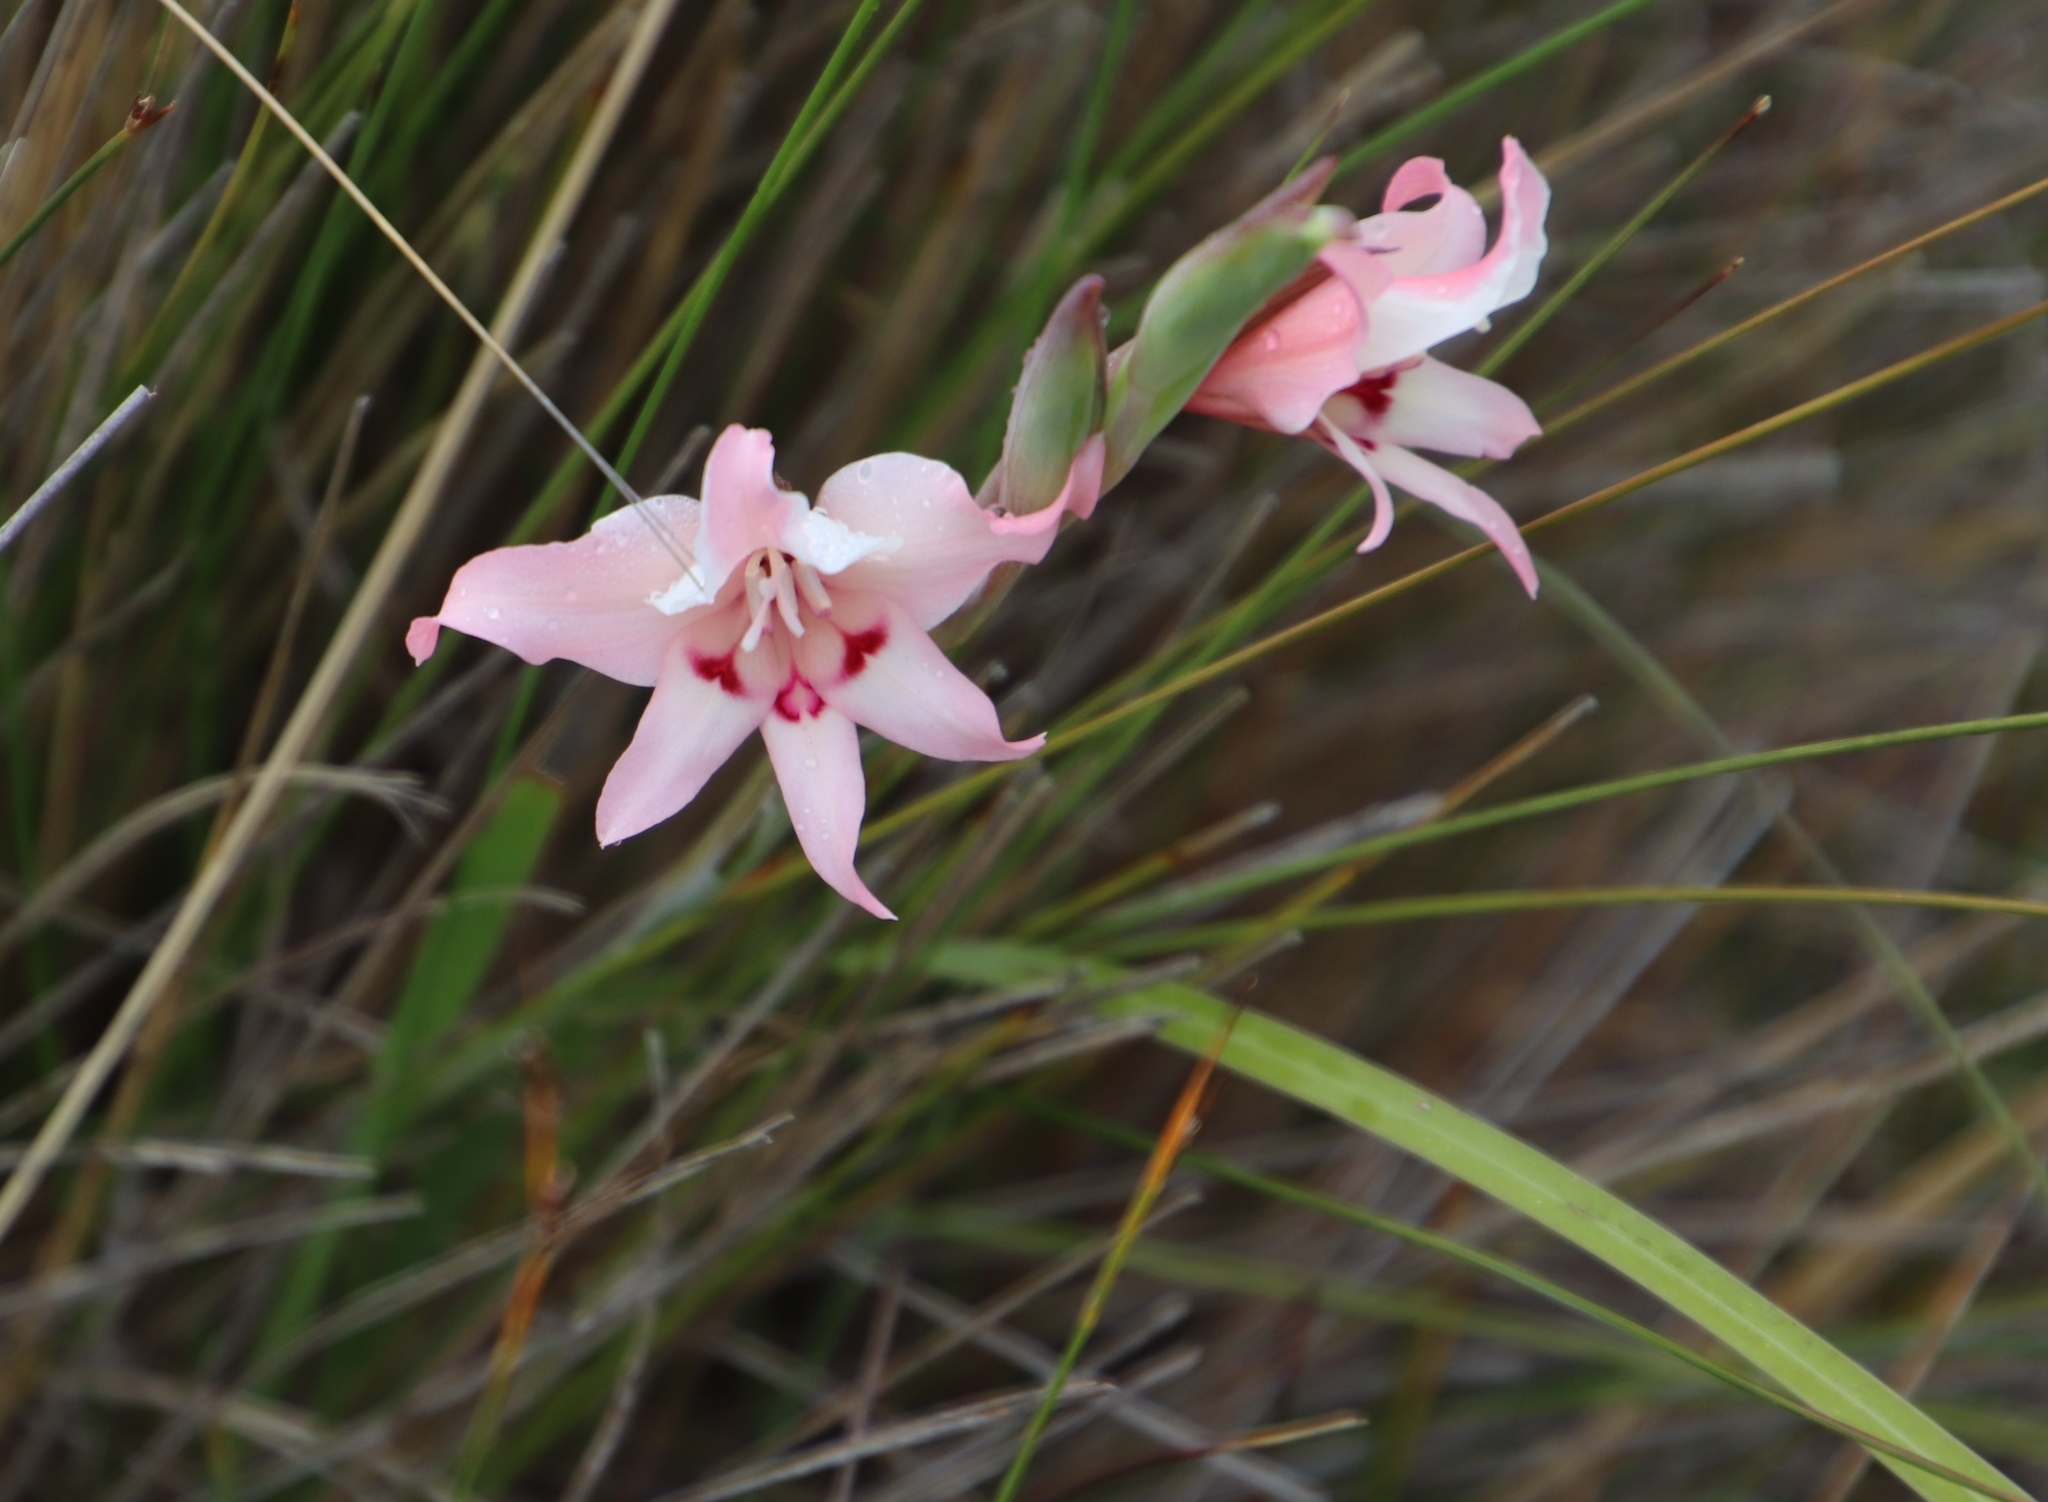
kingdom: Plantae
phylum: Tracheophyta
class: Liliopsida
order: Asparagales
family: Iridaceae
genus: Gladiolus
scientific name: Gladiolus carneus
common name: Painted-lady
